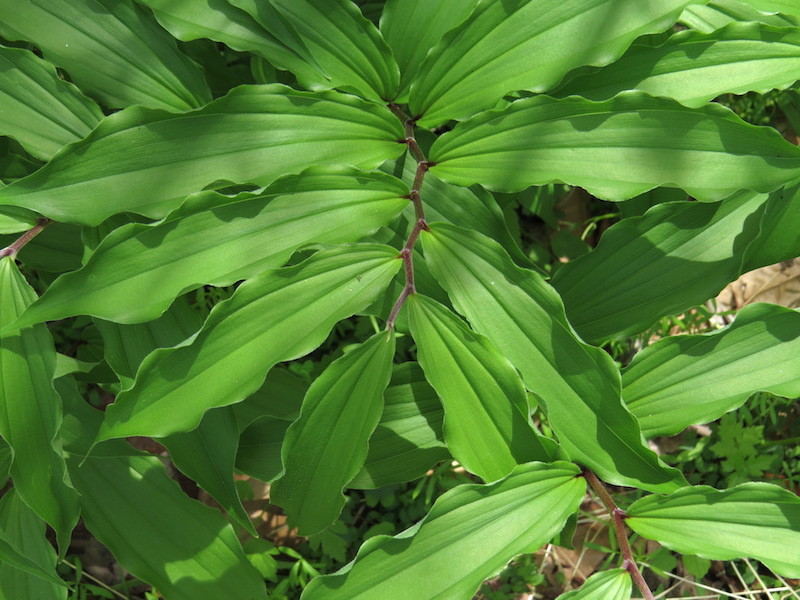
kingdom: Plantae
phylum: Tracheophyta
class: Liliopsida
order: Asparagales
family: Asparagaceae
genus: Maianthemum
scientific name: Maianthemum racemosum
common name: False spikenard
